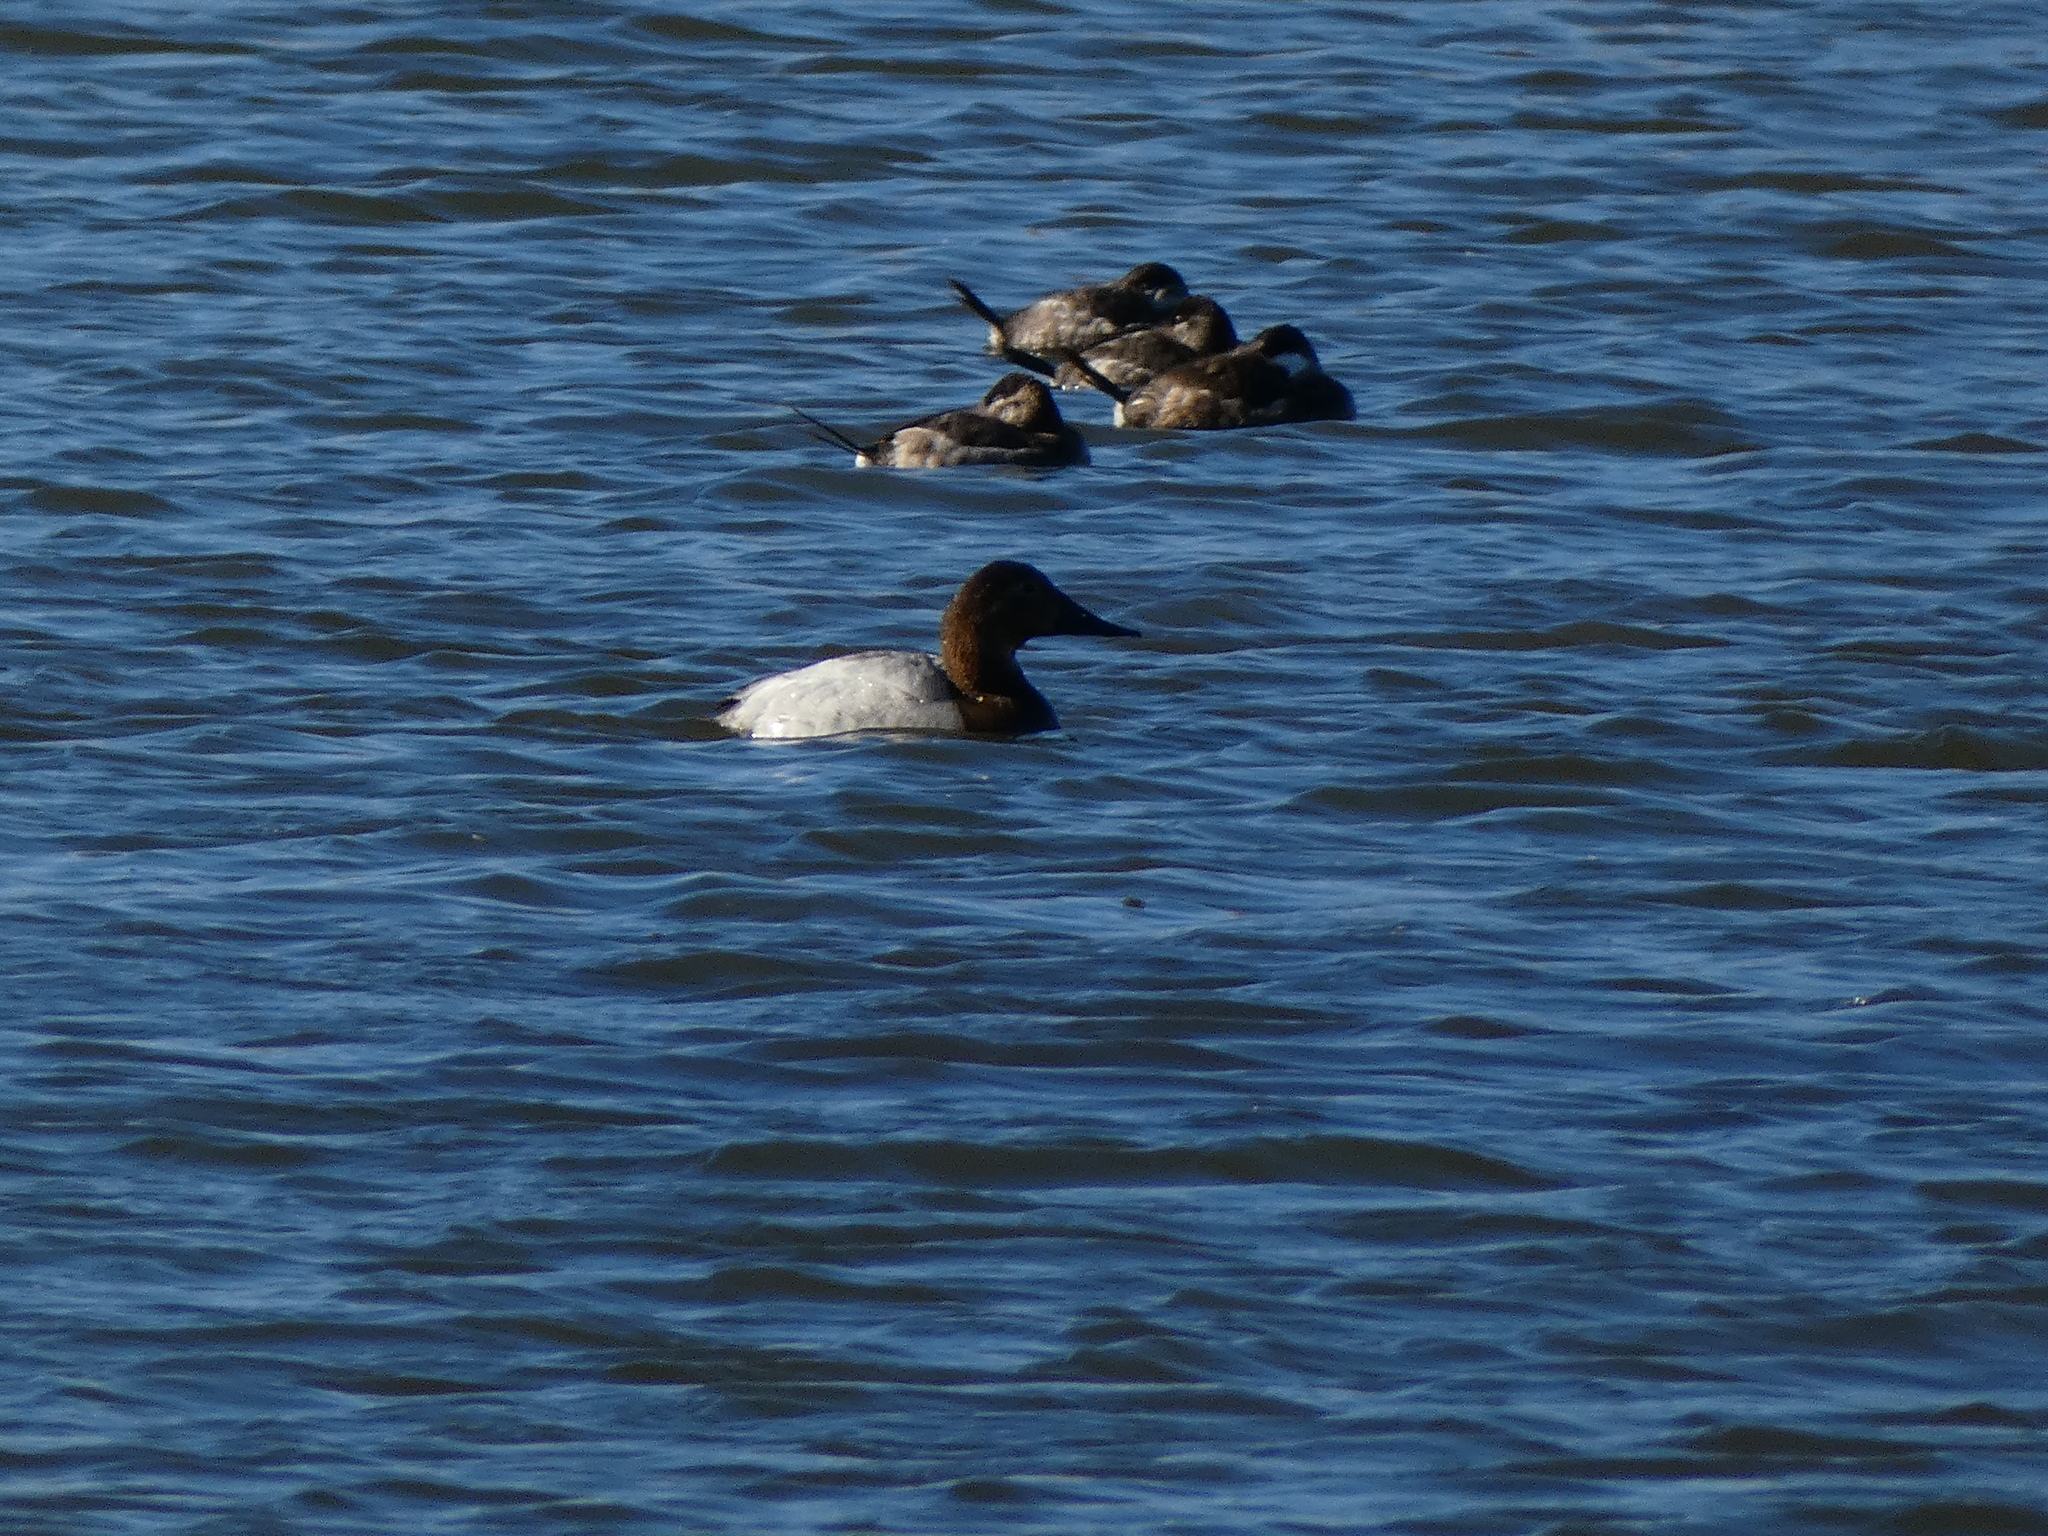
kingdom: Animalia
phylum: Chordata
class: Aves
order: Anseriformes
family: Anatidae
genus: Aythya
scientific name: Aythya valisineria
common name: Canvasback
